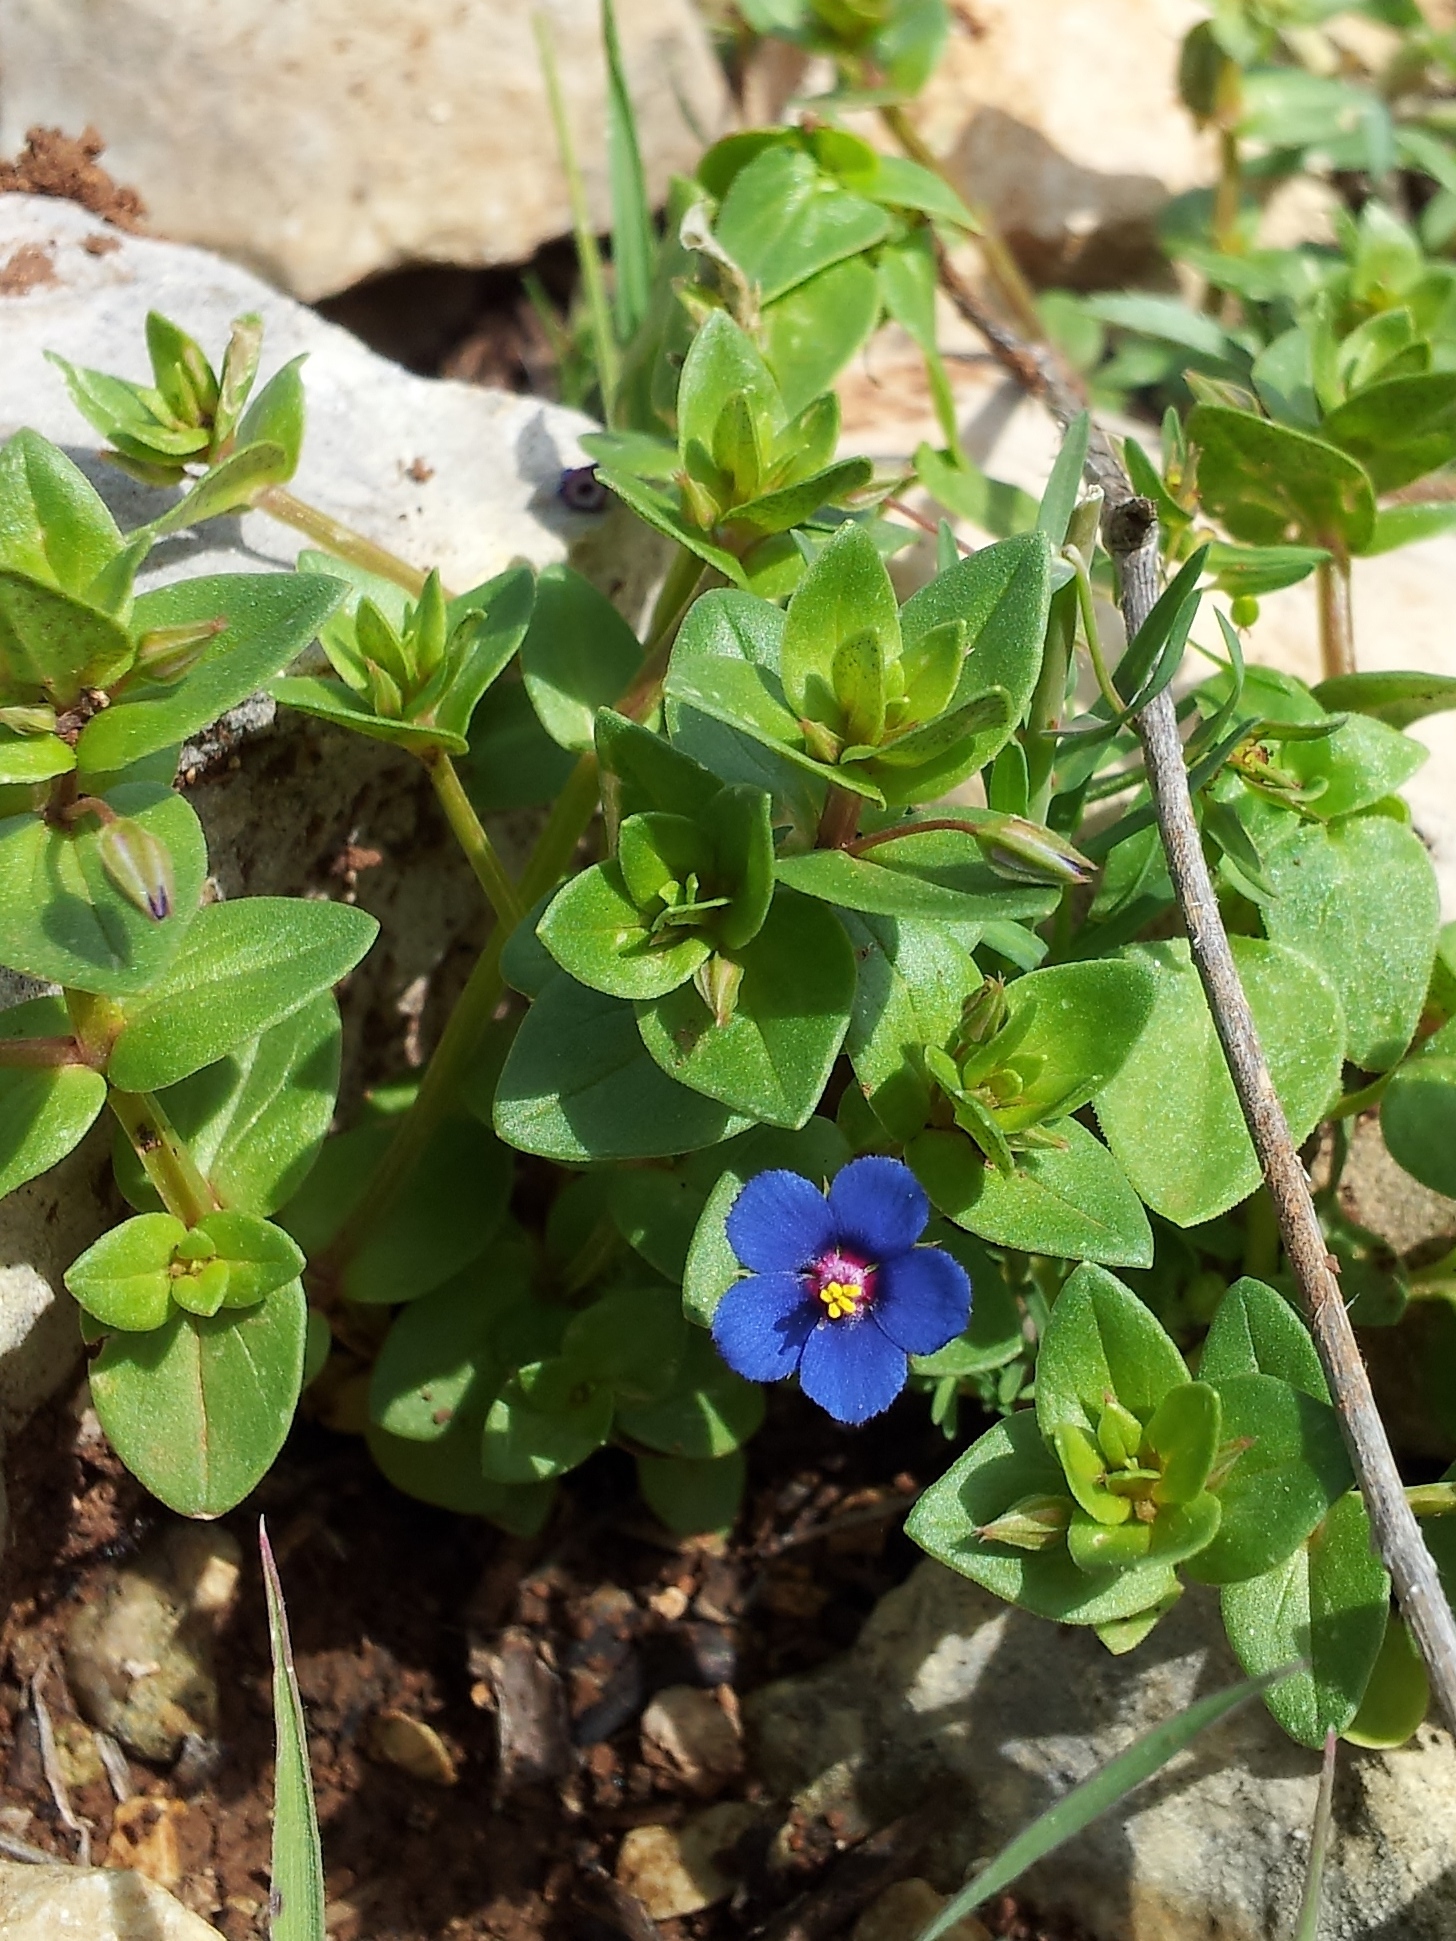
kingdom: Plantae
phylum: Tracheophyta
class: Magnoliopsida
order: Ericales
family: Primulaceae
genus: Lysimachia
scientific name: Lysimachia arvensis
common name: Scarlet pimpernel
